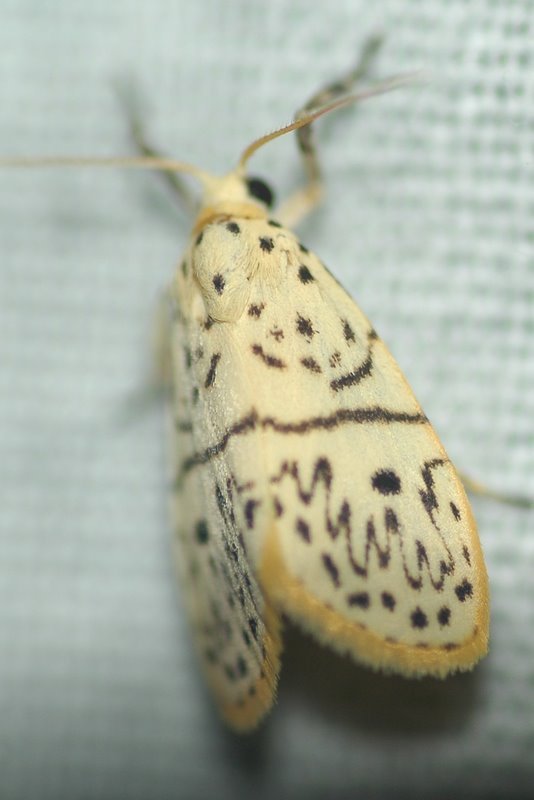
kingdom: Animalia
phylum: Arthropoda
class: Insecta
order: Lepidoptera
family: Erebidae
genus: Miltochrista
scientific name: Miltochrista undulosa
